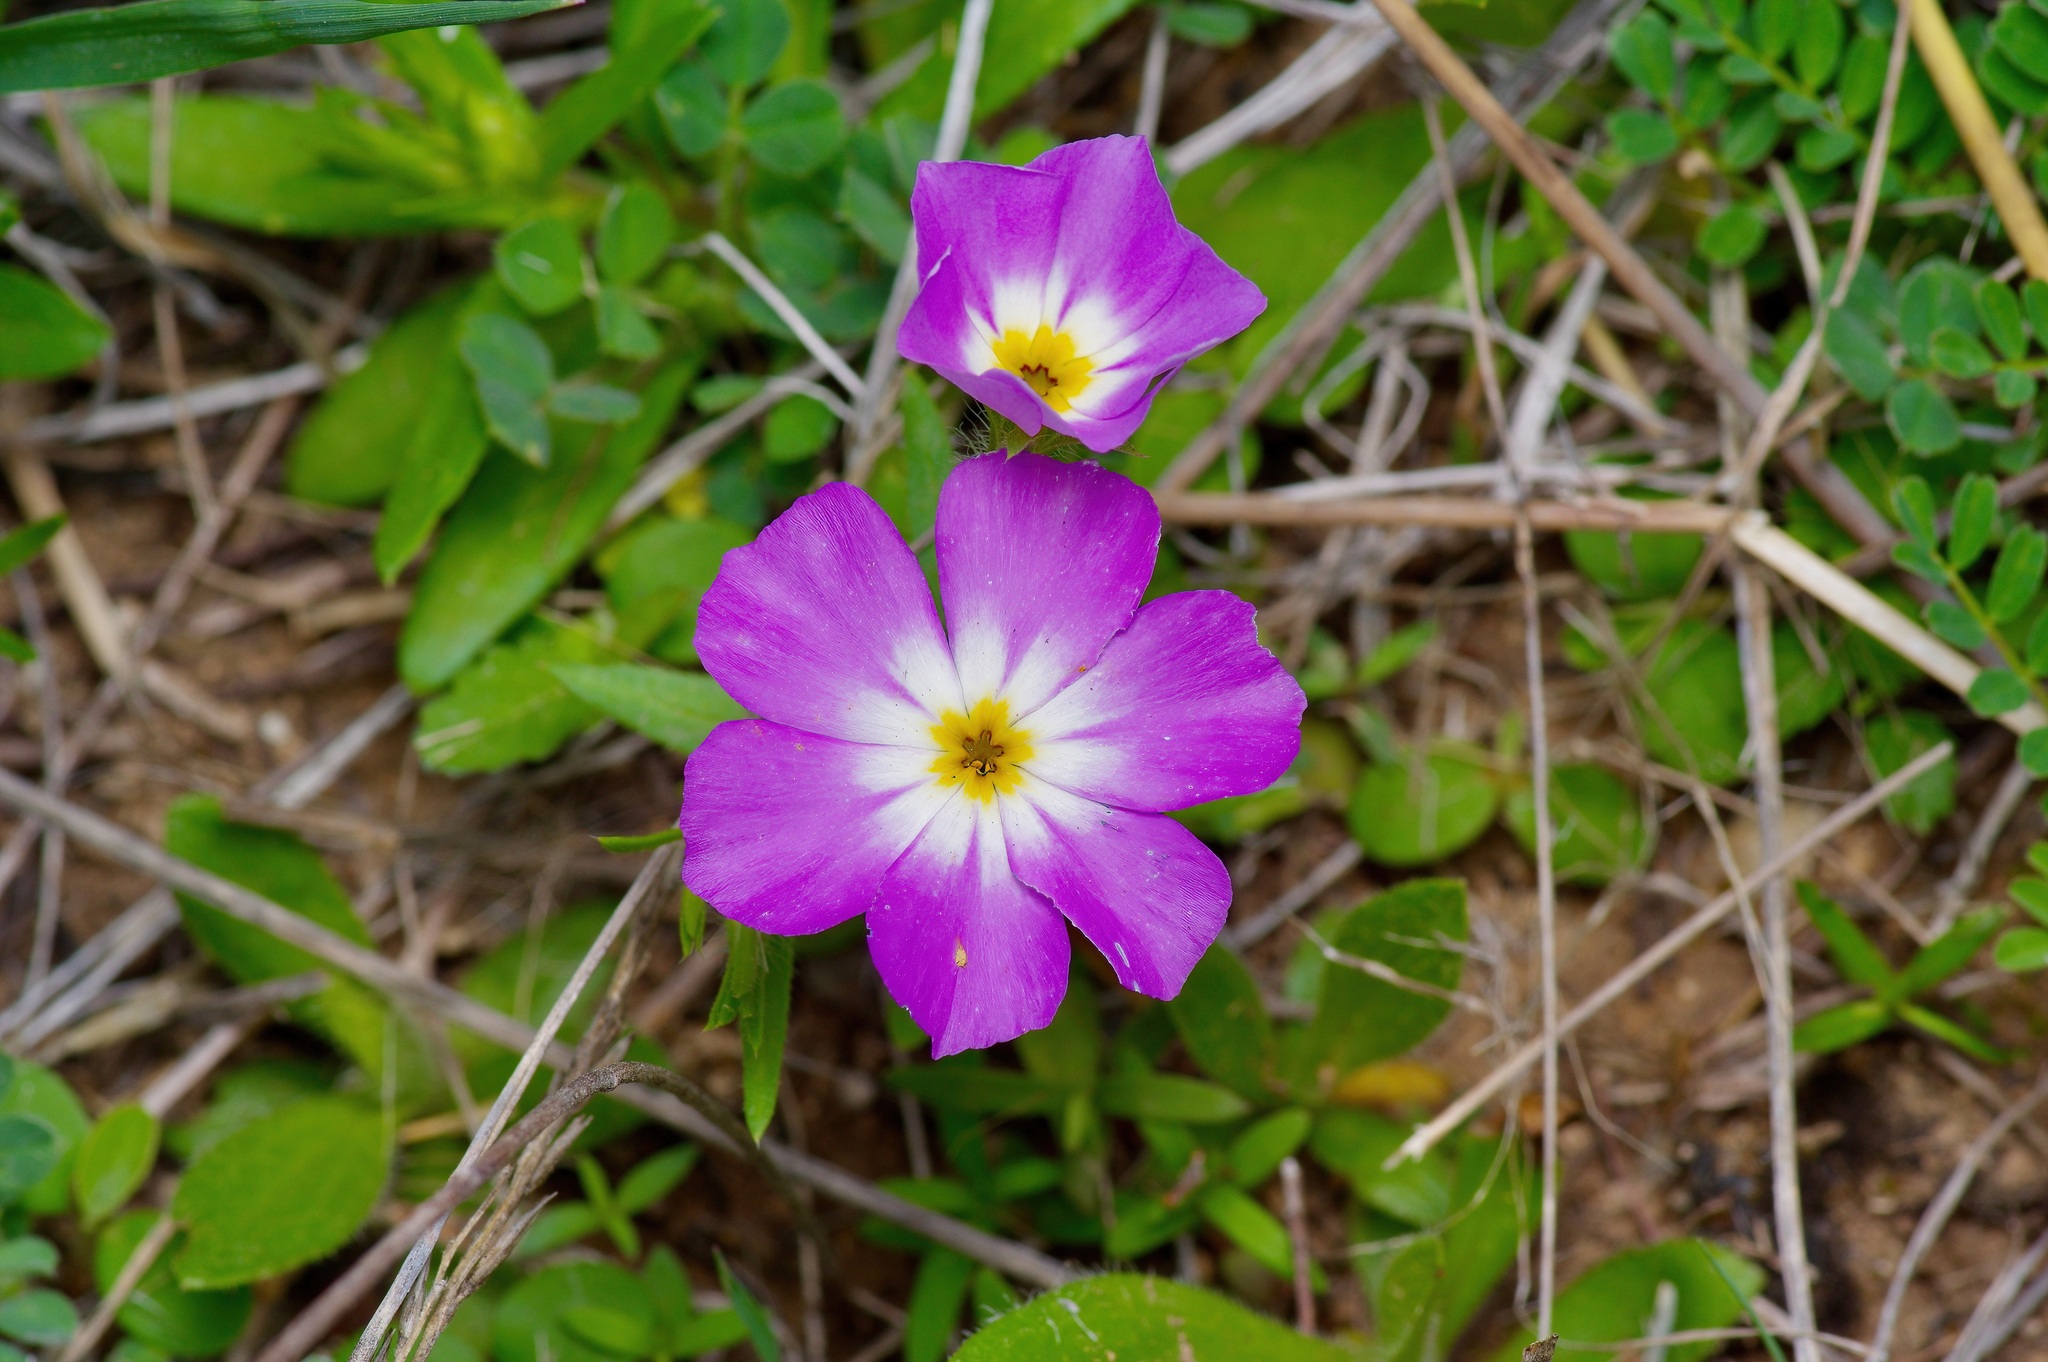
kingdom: Plantae
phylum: Tracheophyta
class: Magnoliopsida
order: Ericales
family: Polemoniaceae
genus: Phlox
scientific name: Phlox roemeriana
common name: Roemer's phlox
